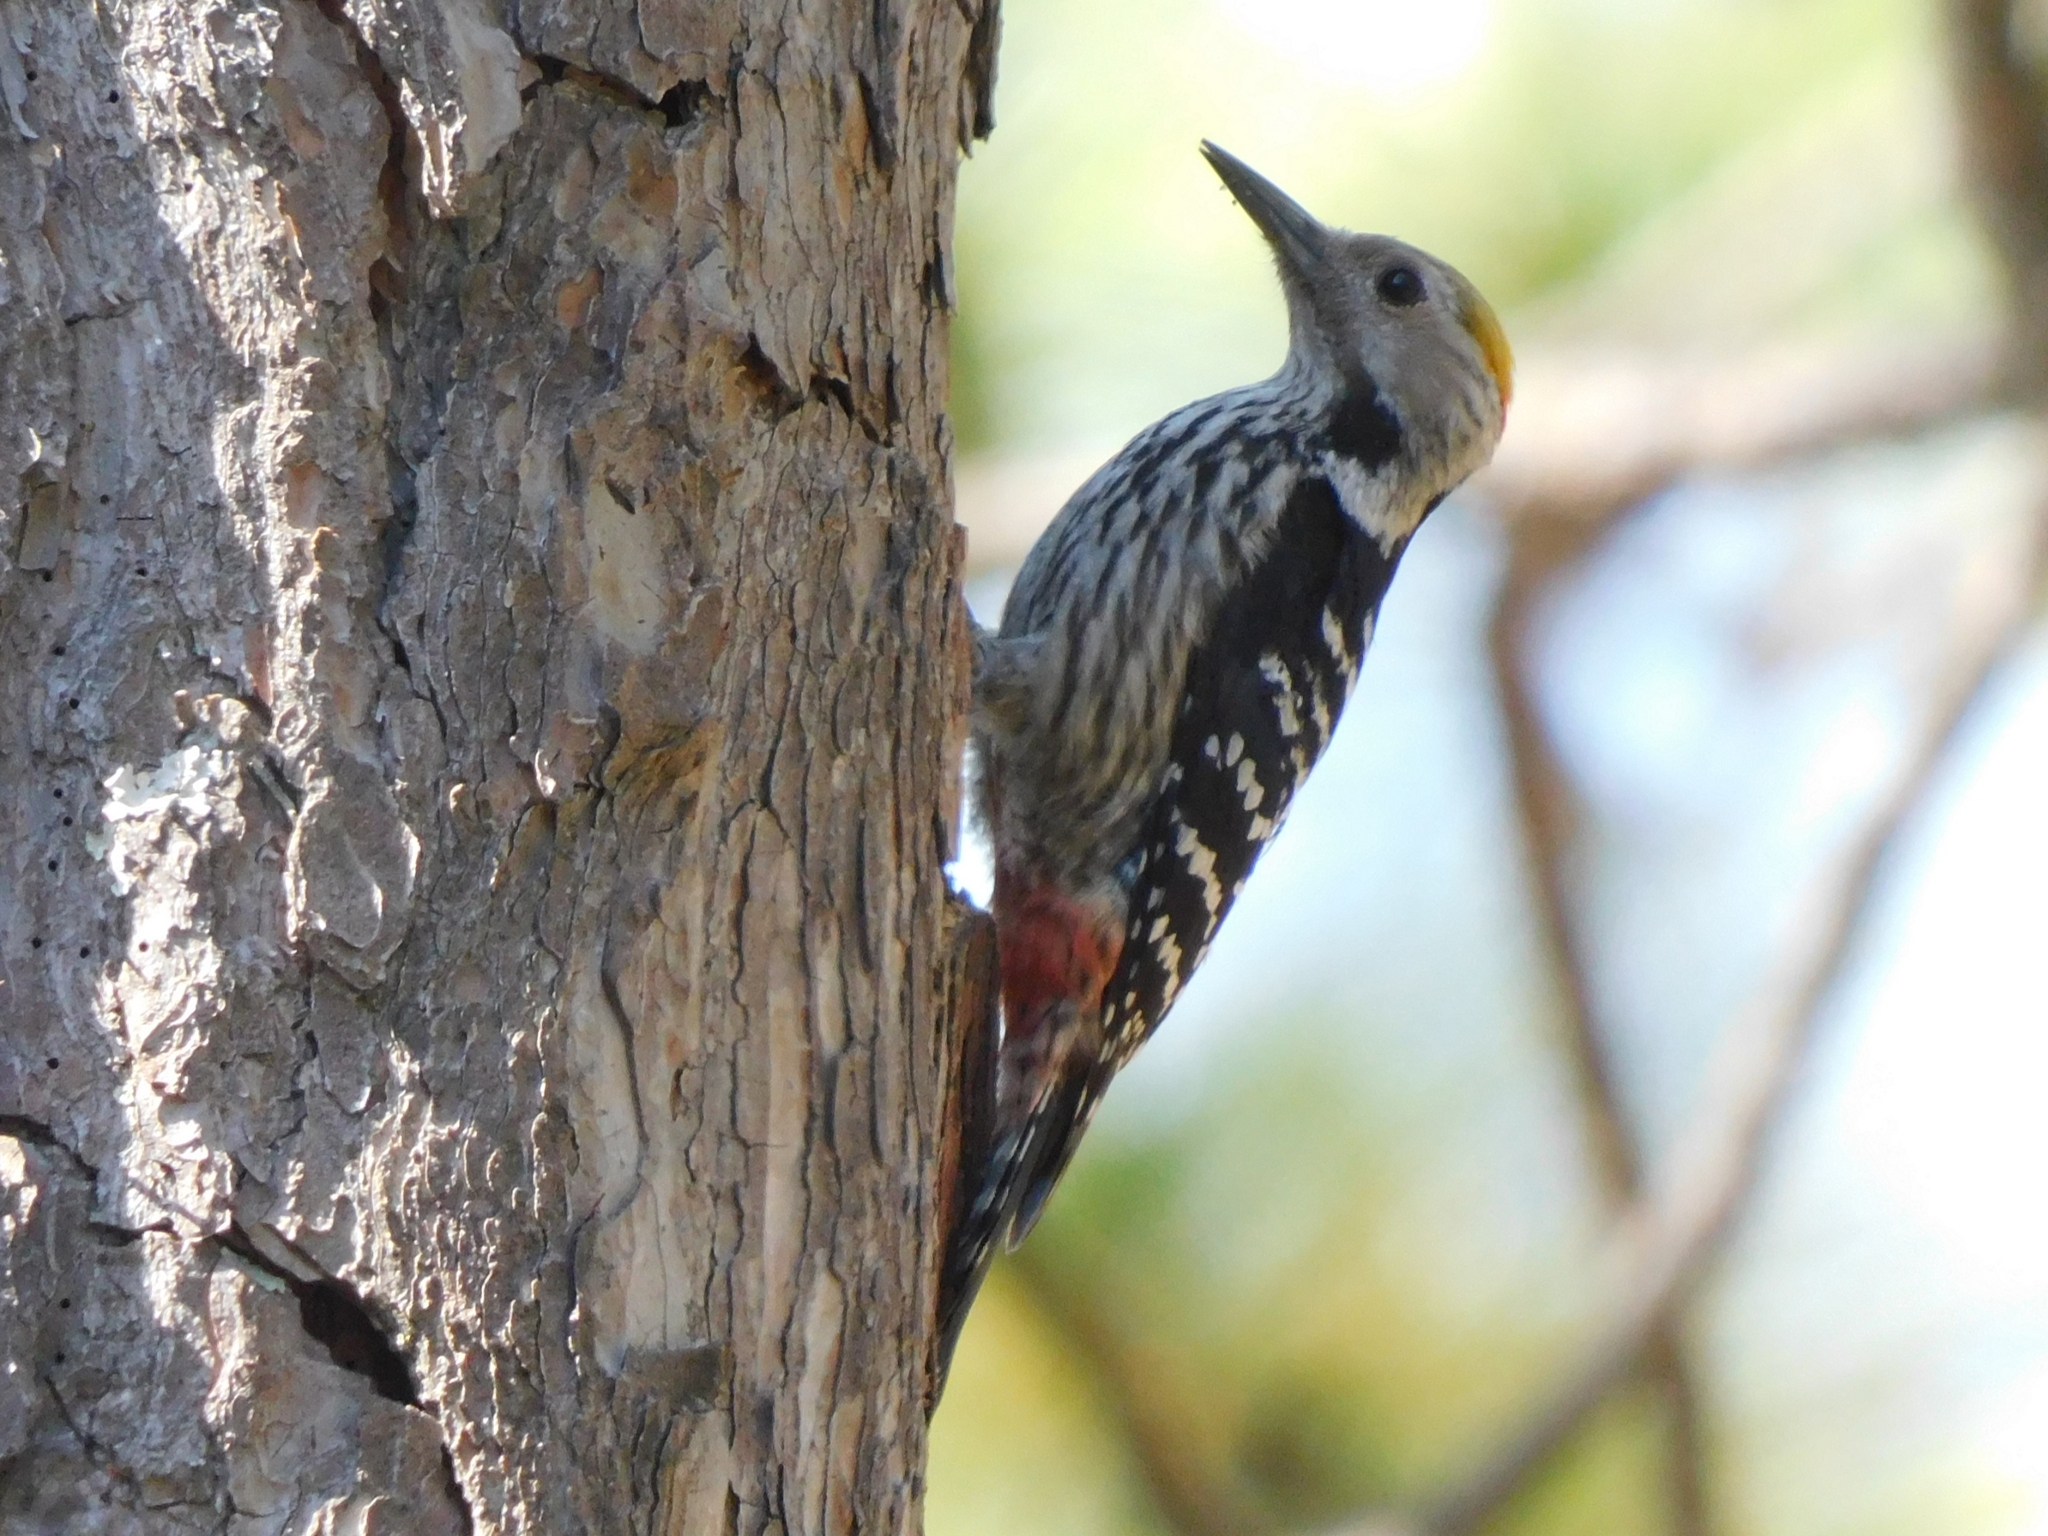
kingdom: Animalia
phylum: Chordata
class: Aves
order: Piciformes
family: Picidae
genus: Dendrocoptes
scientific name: Dendrocoptes auriceps
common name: Brown-fronted woodpecker
